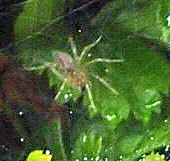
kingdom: Animalia
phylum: Arthropoda
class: Arachnida
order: Araneae
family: Agelenidae
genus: Agelenopsis
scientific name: Agelenopsis
